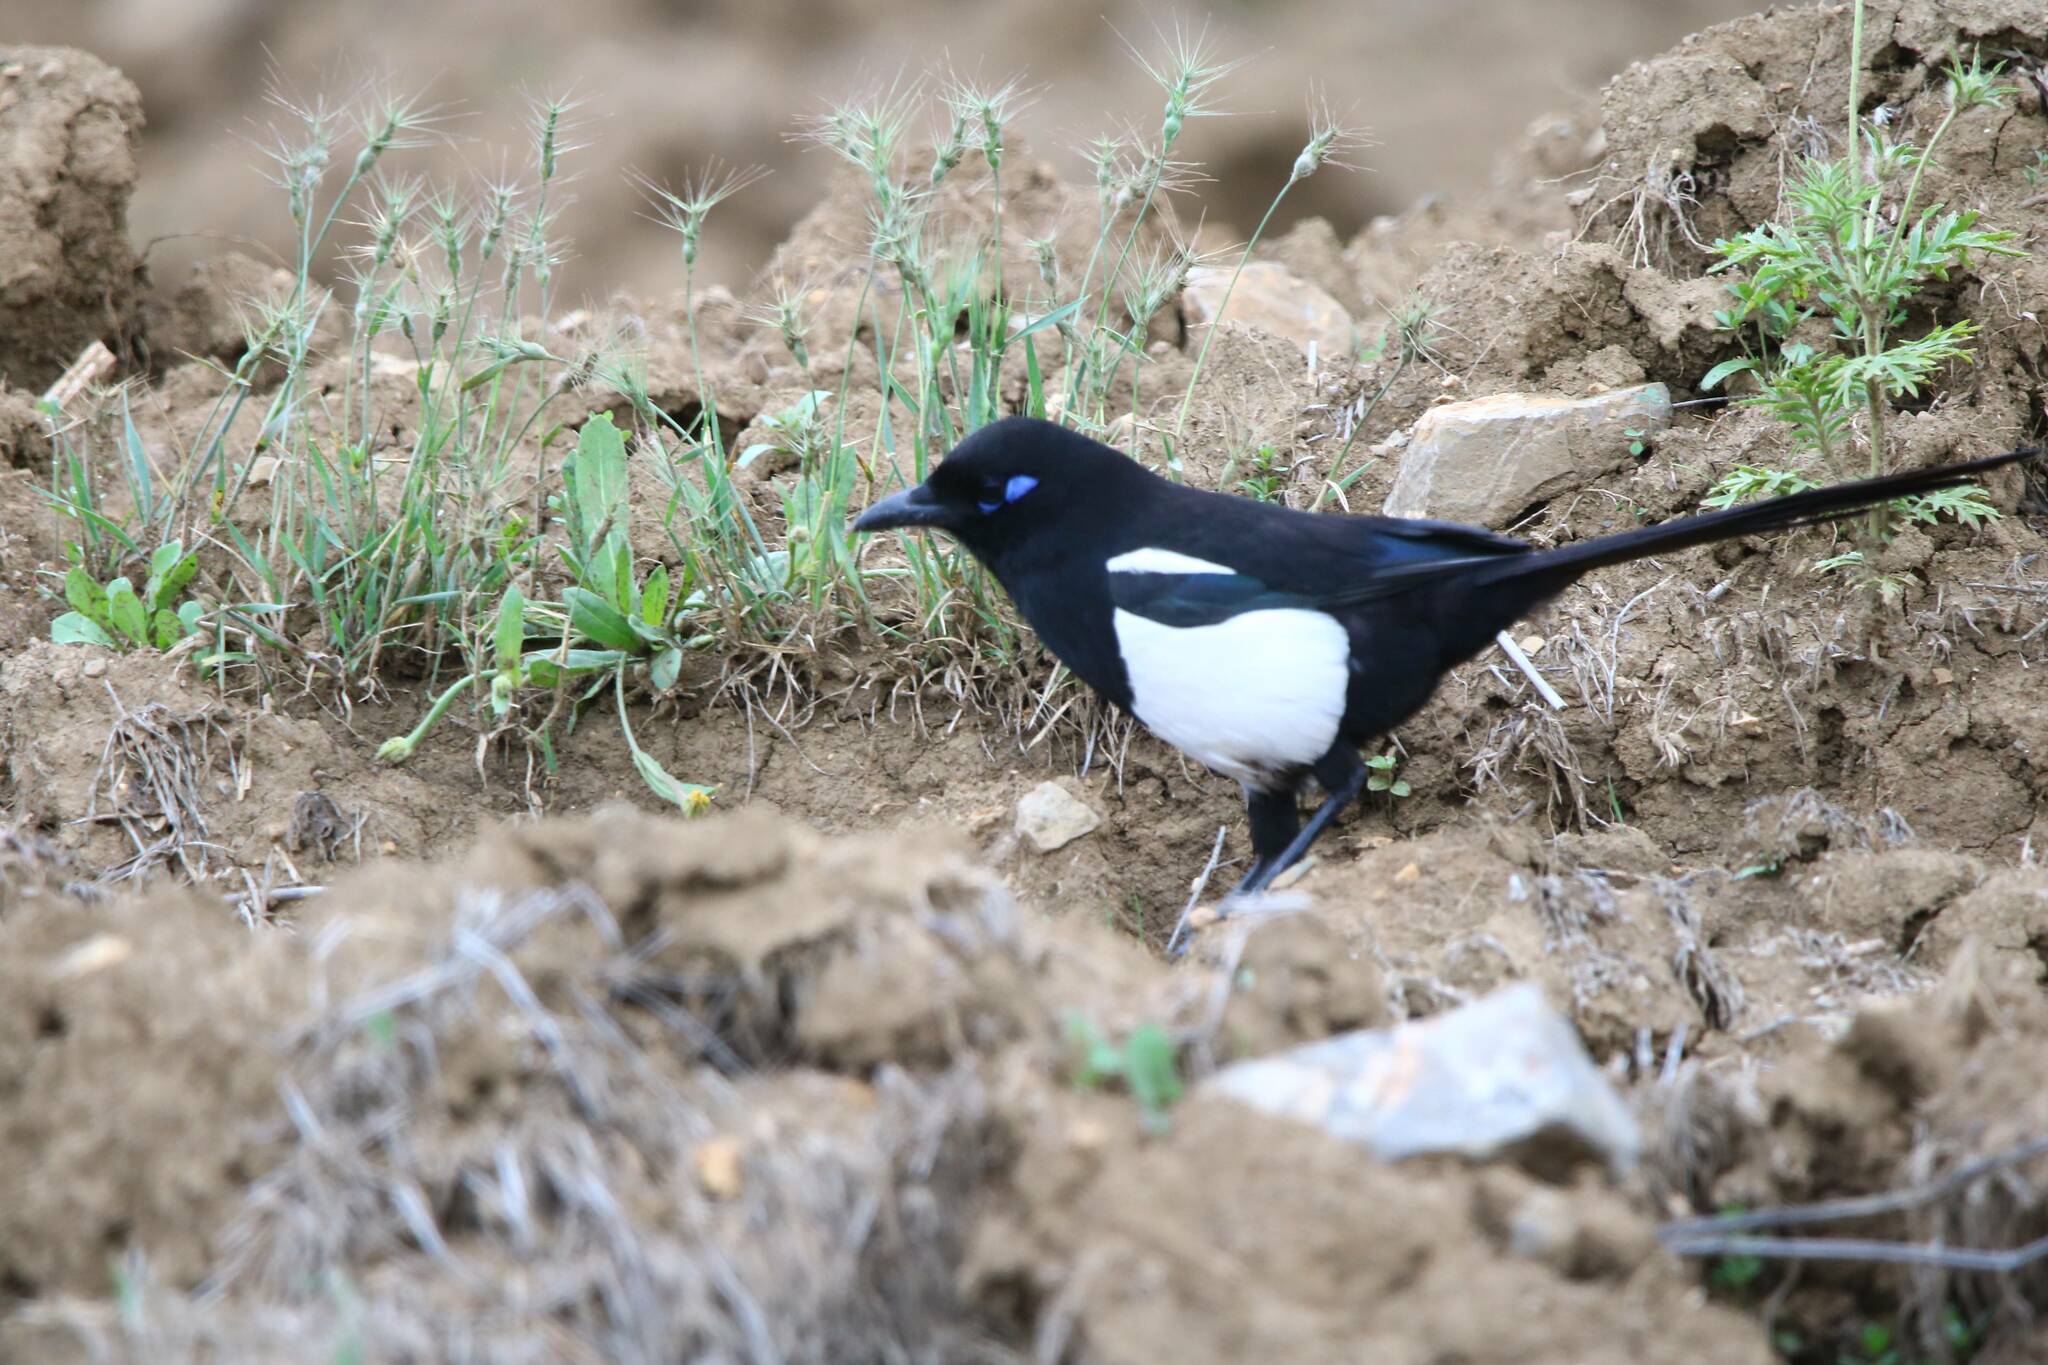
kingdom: Animalia
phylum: Chordata
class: Aves
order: Passeriformes
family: Corvidae
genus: Pica
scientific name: Pica mauritanica
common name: Maghreb magpie
